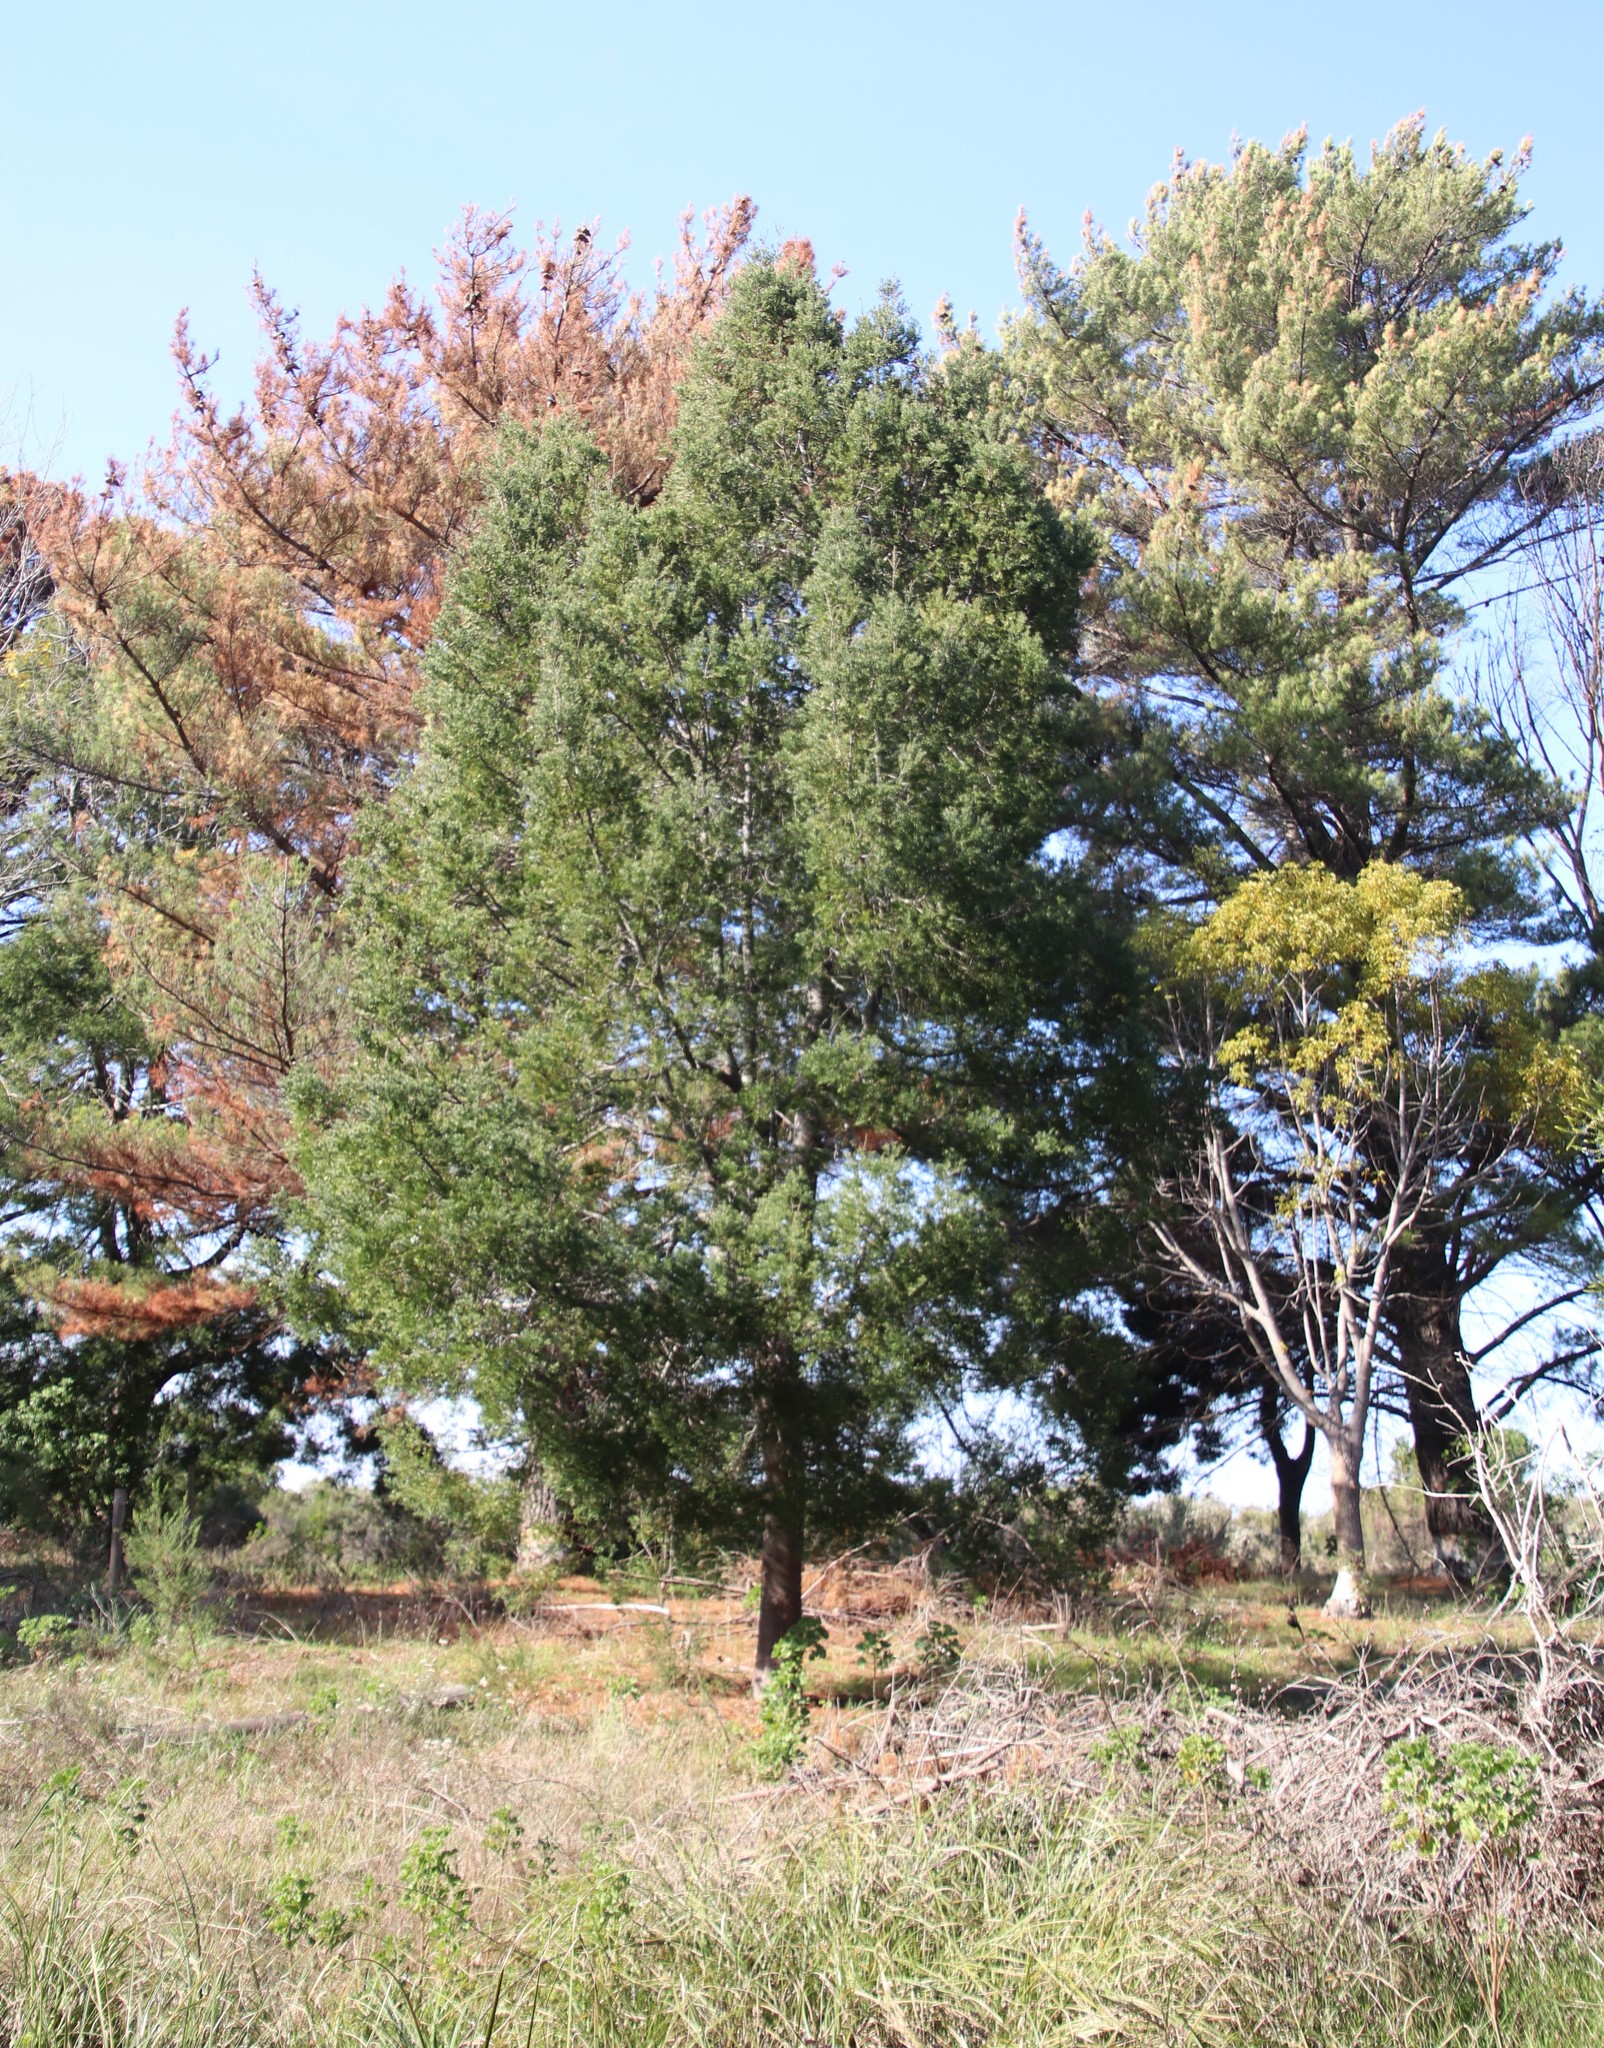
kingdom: Plantae
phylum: Tracheophyta
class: Pinopsida
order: Pinales
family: Podocarpaceae
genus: Afrocarpus
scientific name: Afrocarpus falcatus
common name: Bastard yellowwood
